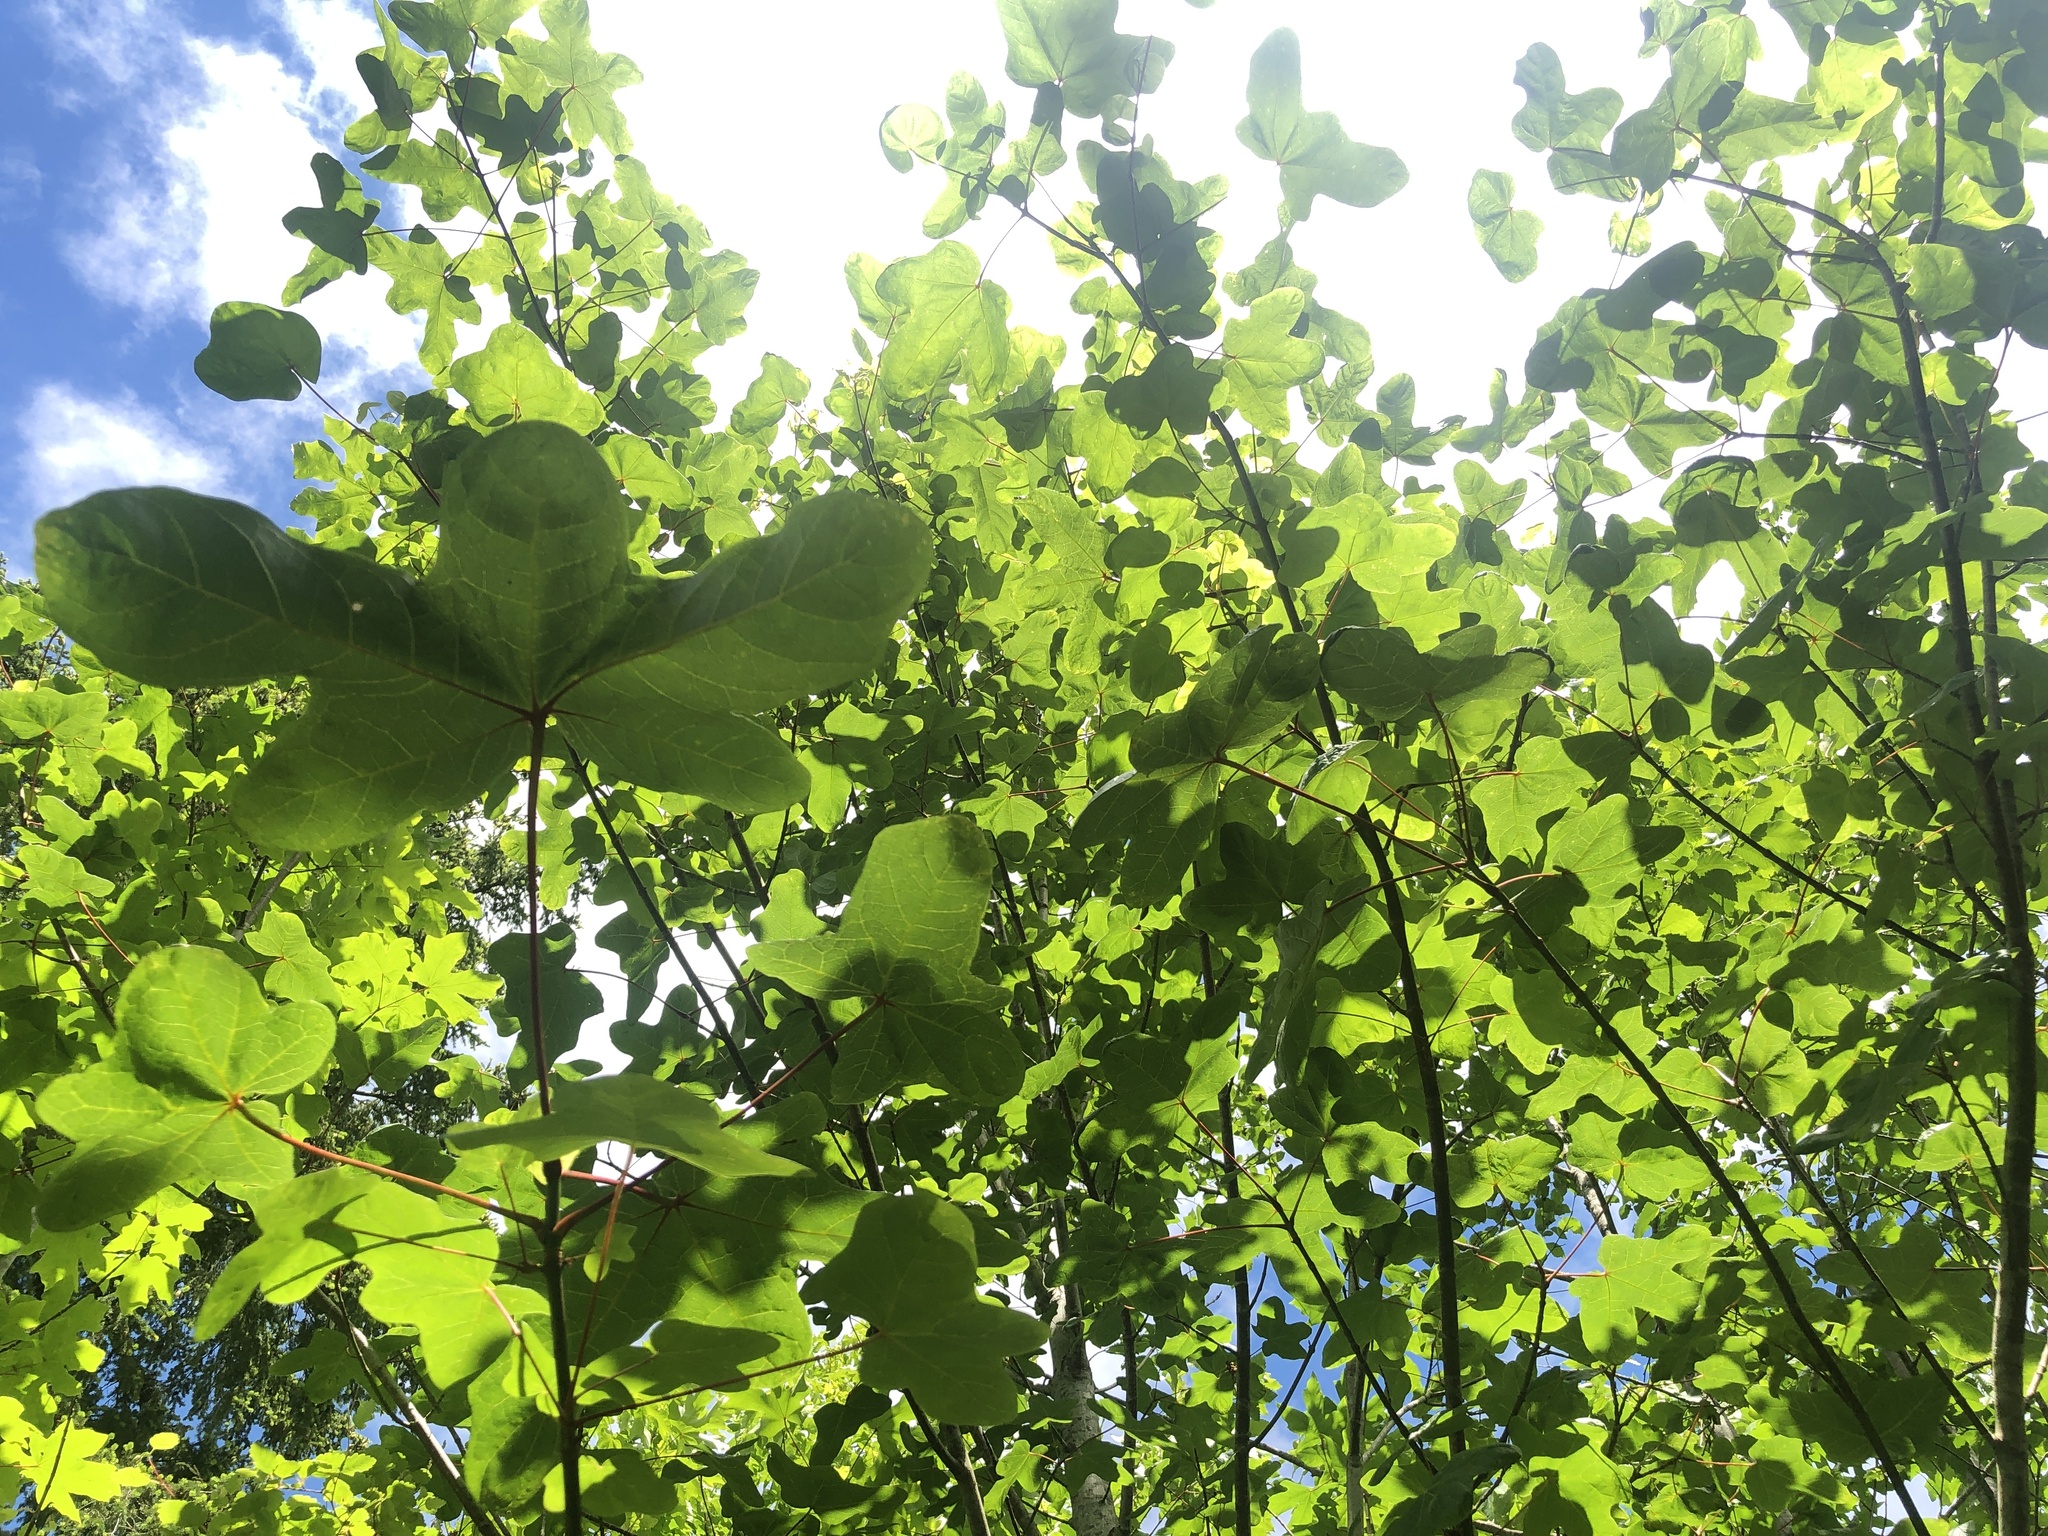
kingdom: Plantae
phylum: Tracheophyta
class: Magnoliopsida
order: Sapindales
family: Sapindaceae
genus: Acer
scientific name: Acer macrophyllum
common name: Oregon maple
